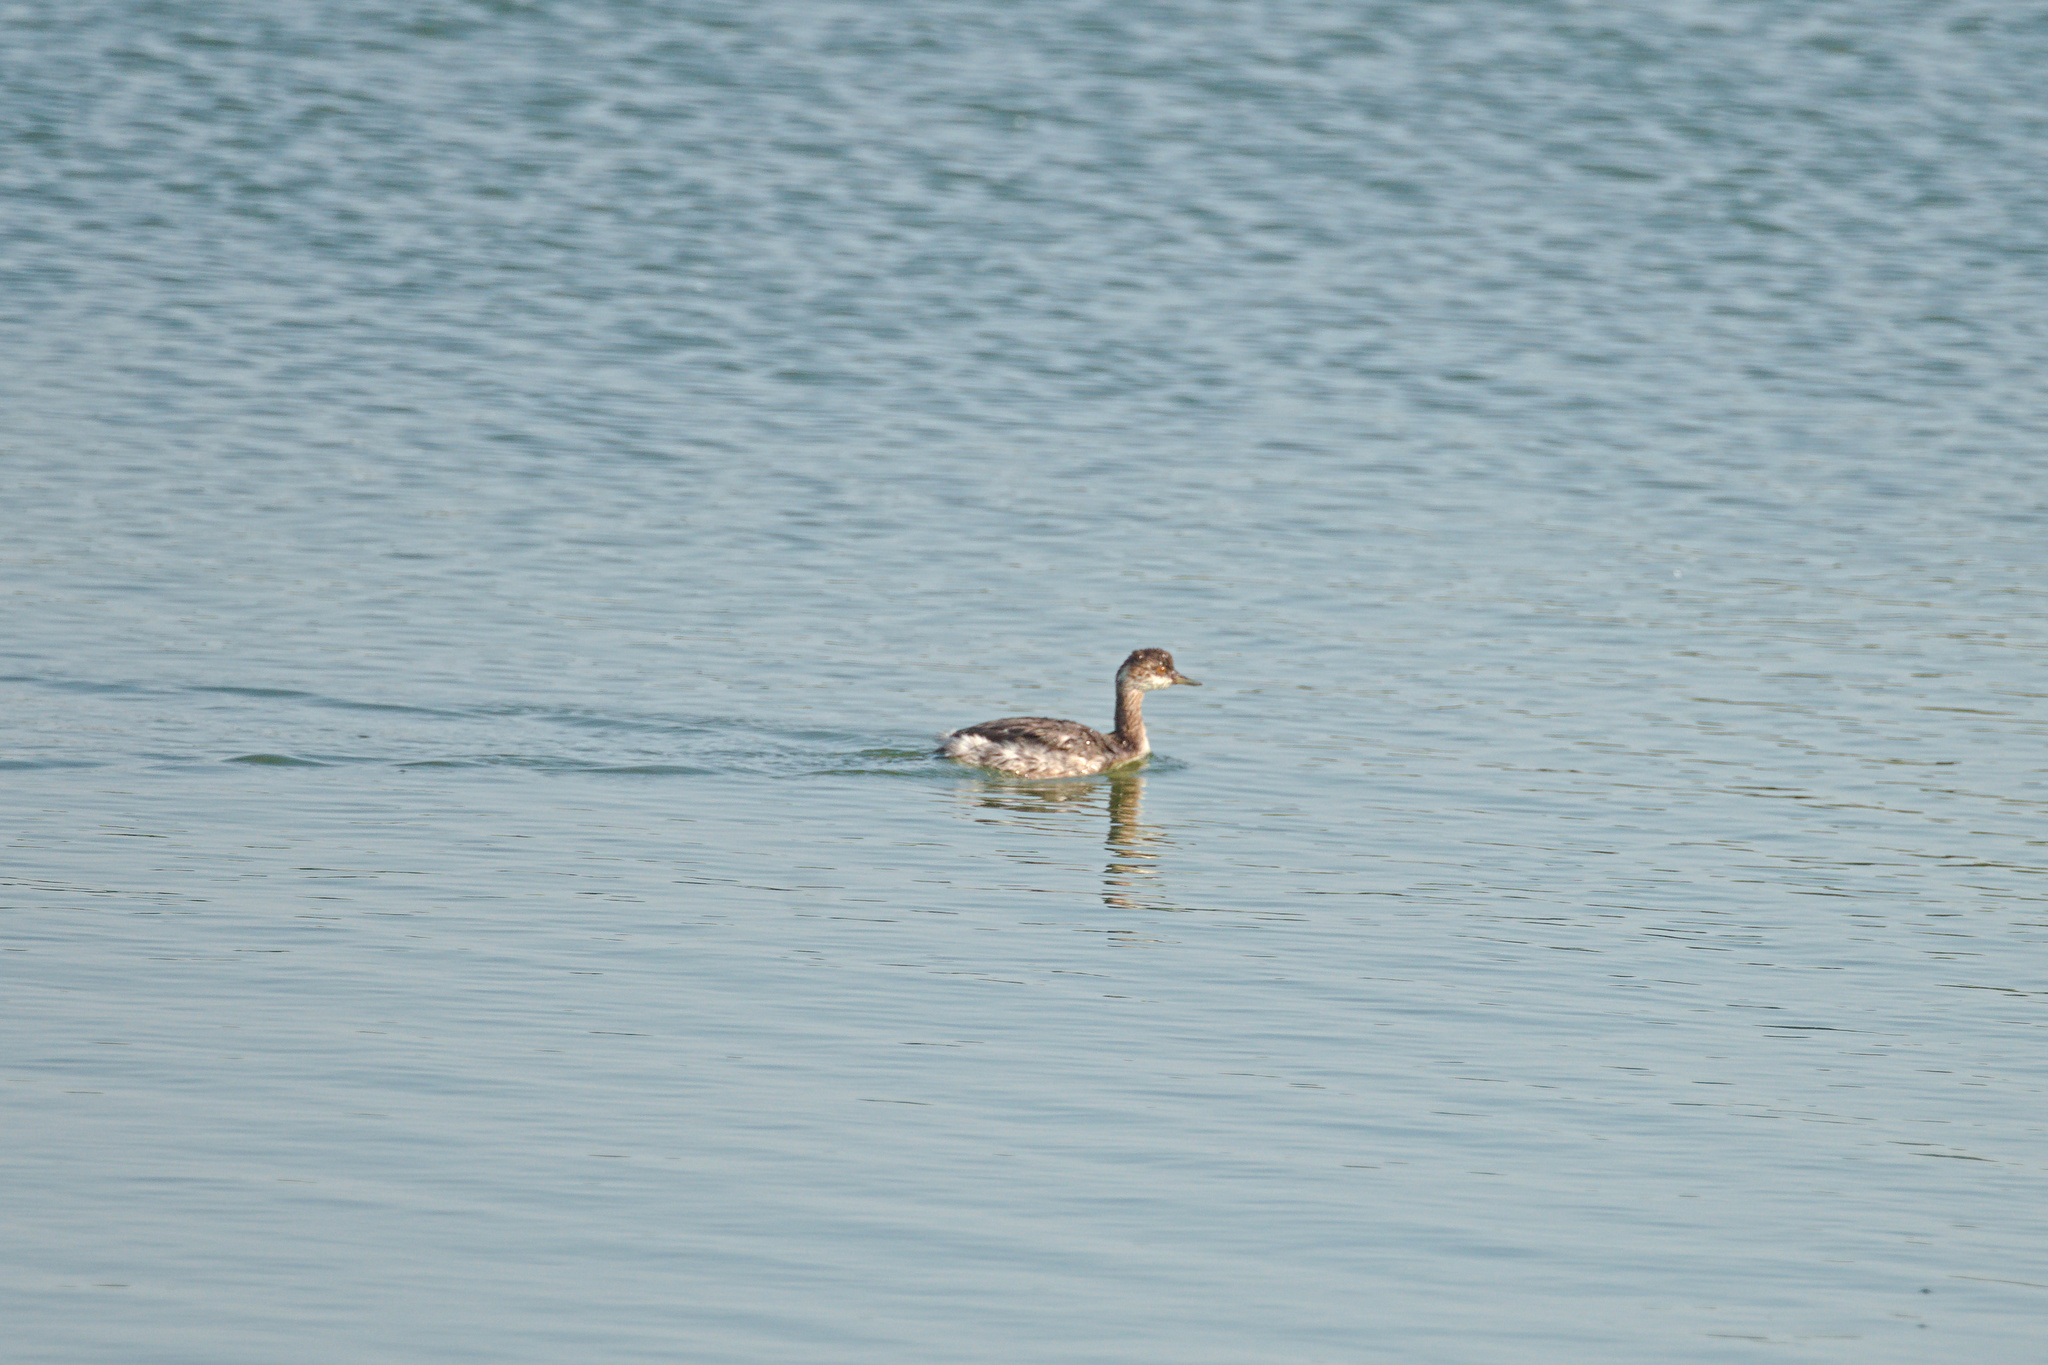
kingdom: Animalia
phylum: Chordata
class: Aves
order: Podicipediformes
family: Podicipedidae
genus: Podiceps
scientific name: Podiceps nigricollis
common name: Black-necked grebe
